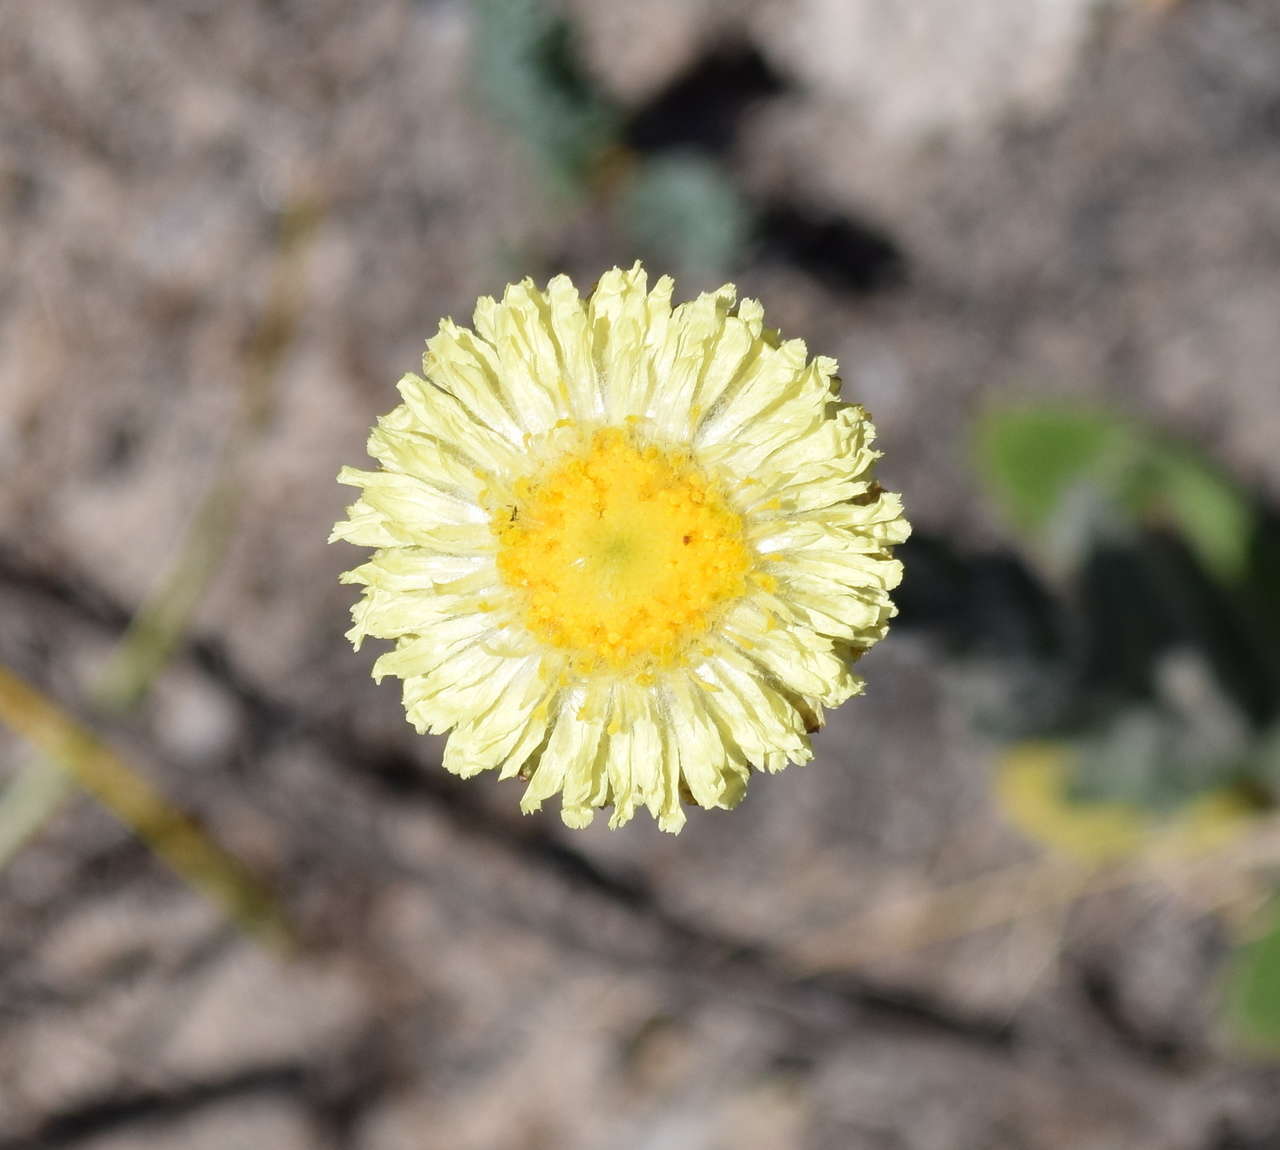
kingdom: Plantae
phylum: Tracheophyta
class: Magnoliopsida
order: Asterales
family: Asteraceae
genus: Coronidium
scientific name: Coronidium scorpioides
